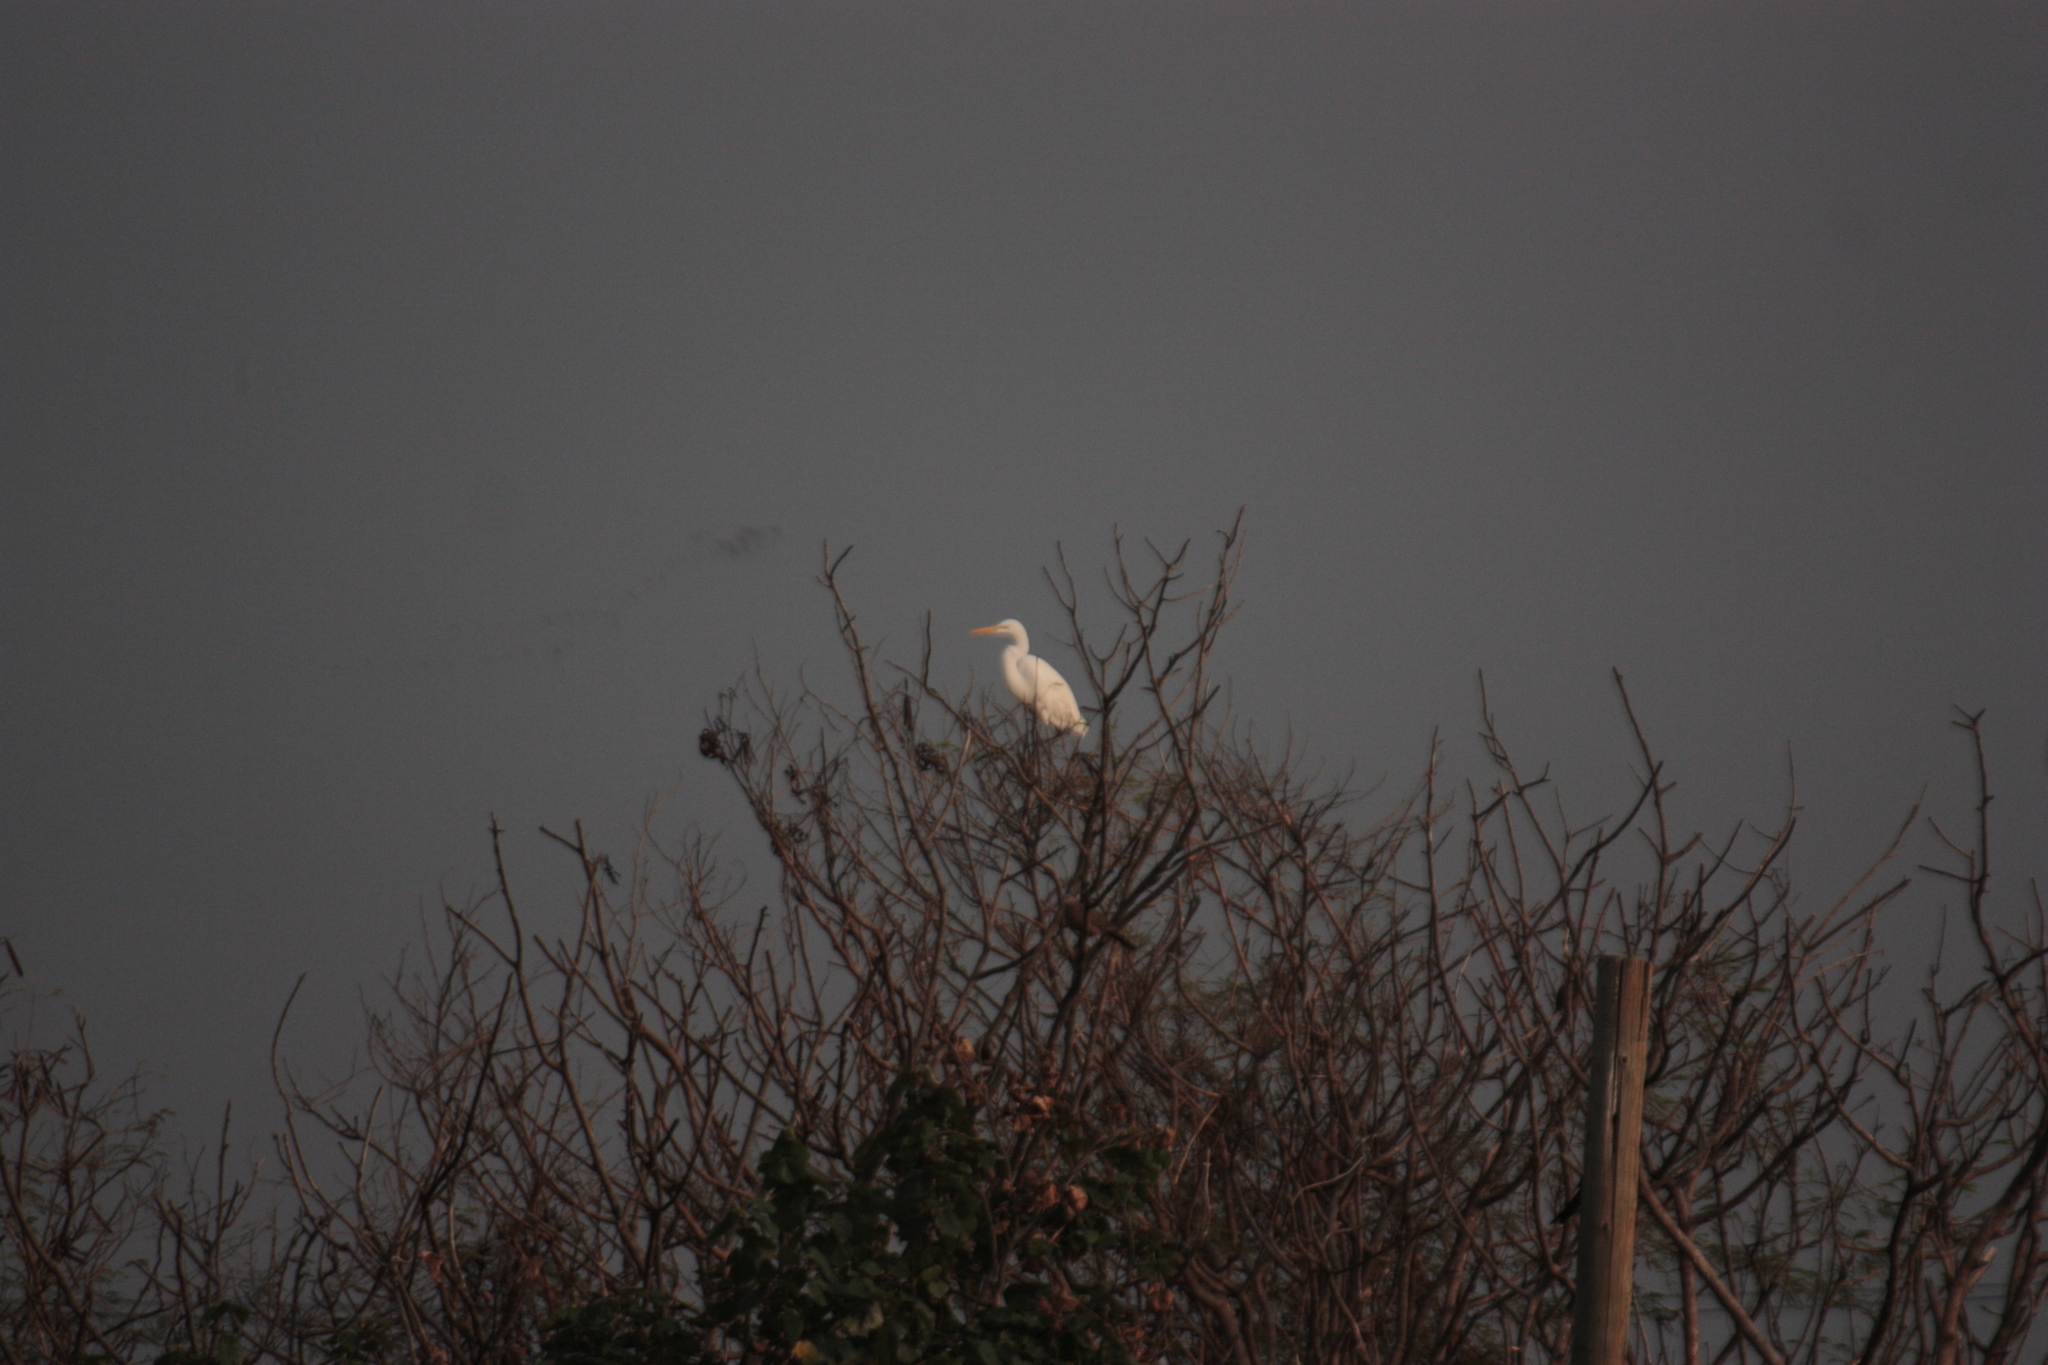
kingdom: Animalia
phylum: Chordata
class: Aves
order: Pelecaniformes
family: Ardeidae
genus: Ardea
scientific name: Ardea alba
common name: Great egret
